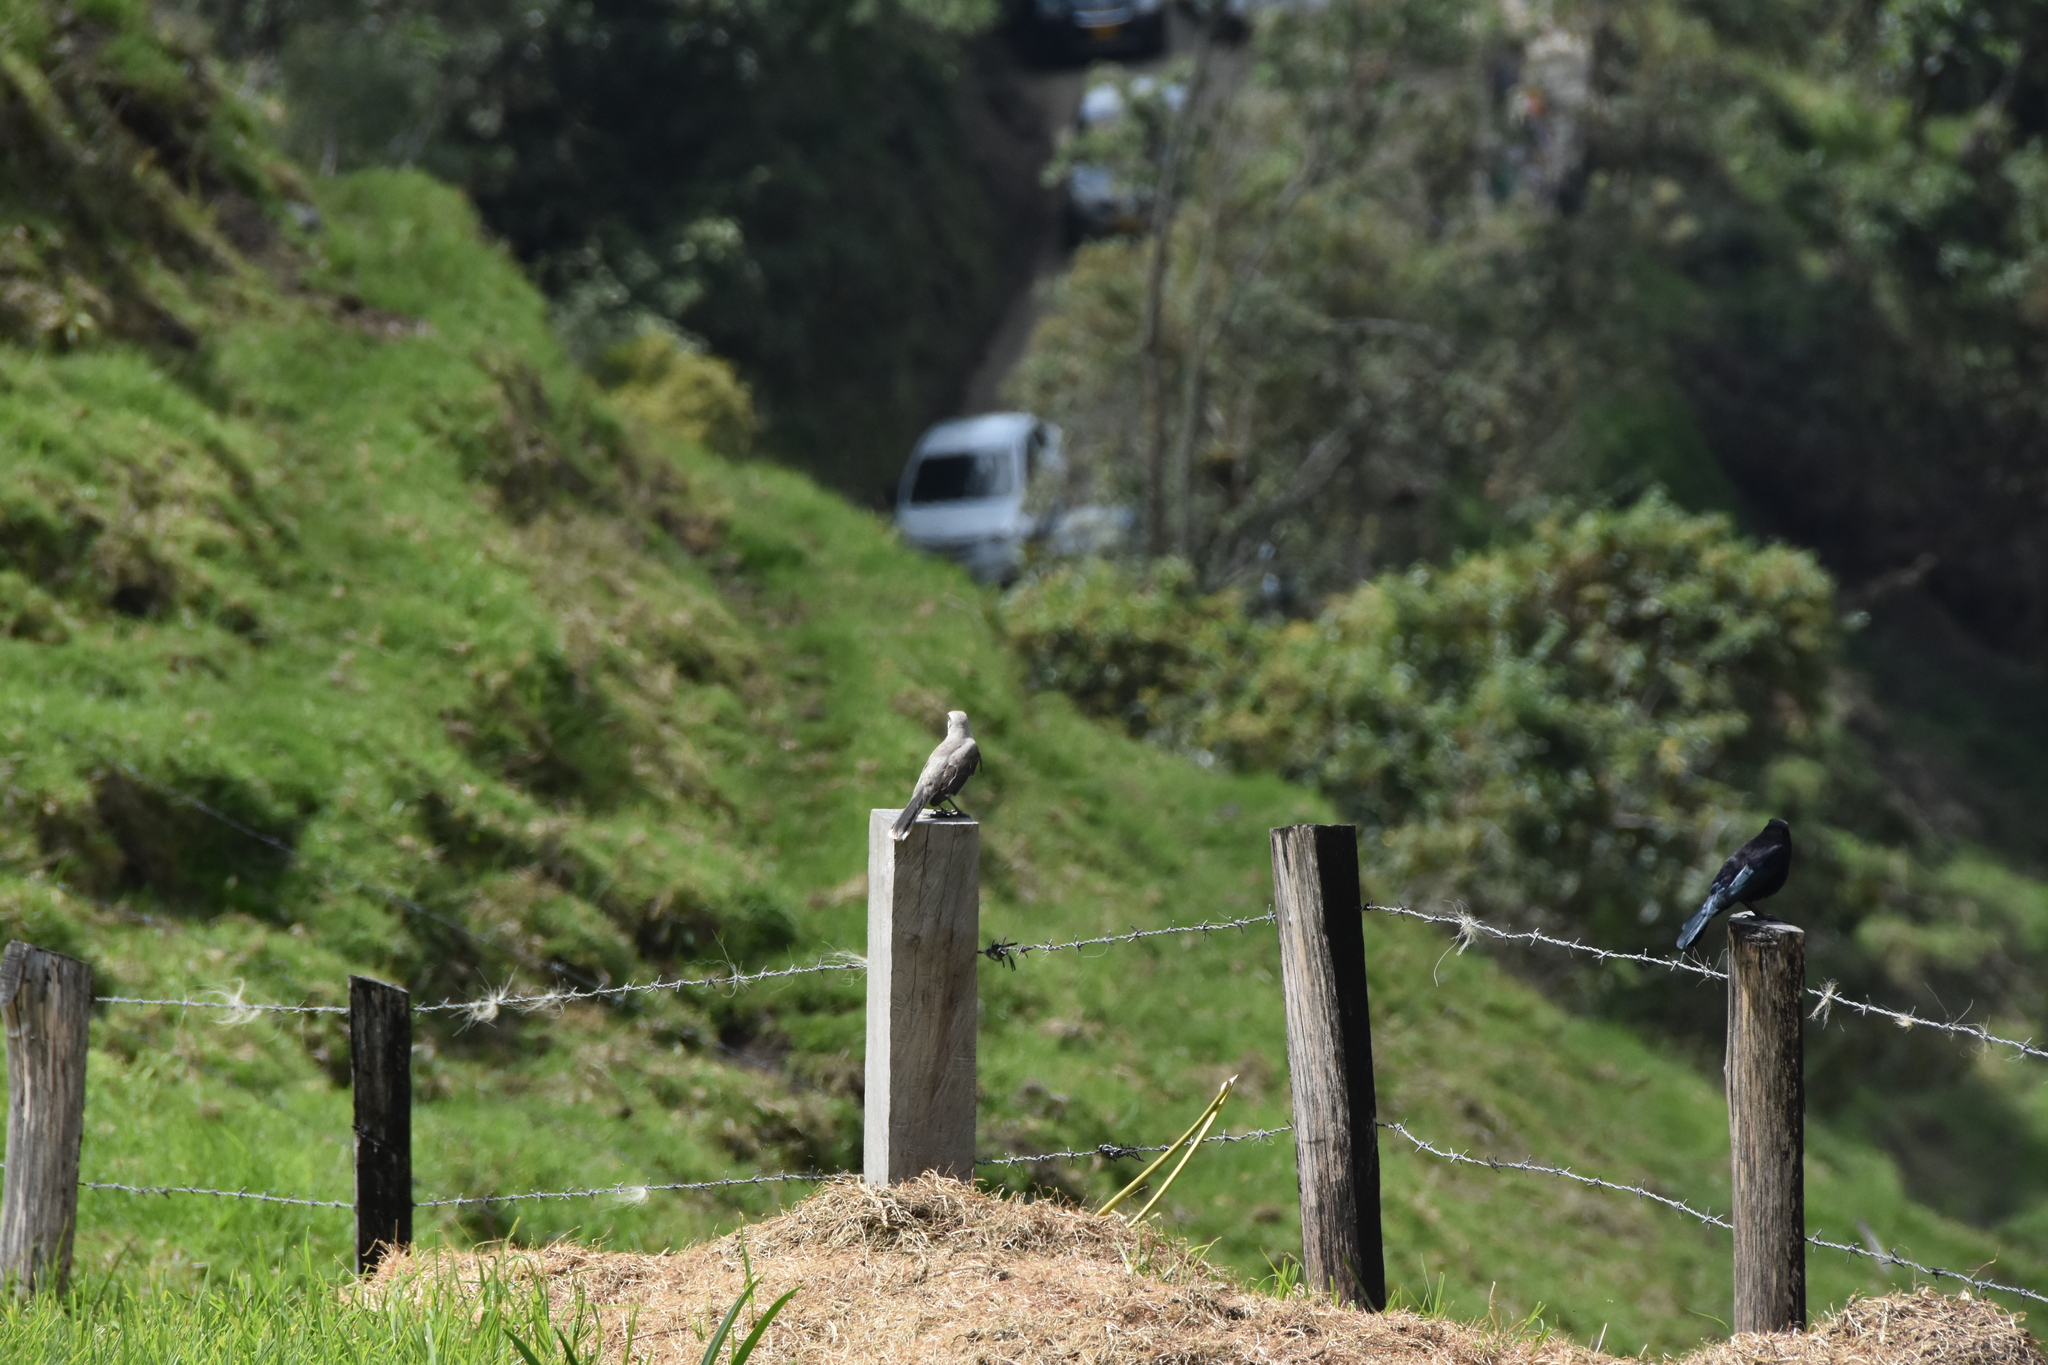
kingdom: Animalia
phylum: Chordata
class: Aves
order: Passeriformes
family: Mimidae
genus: Mimus
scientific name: Mimus gilvus
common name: Tropical mockingbird
